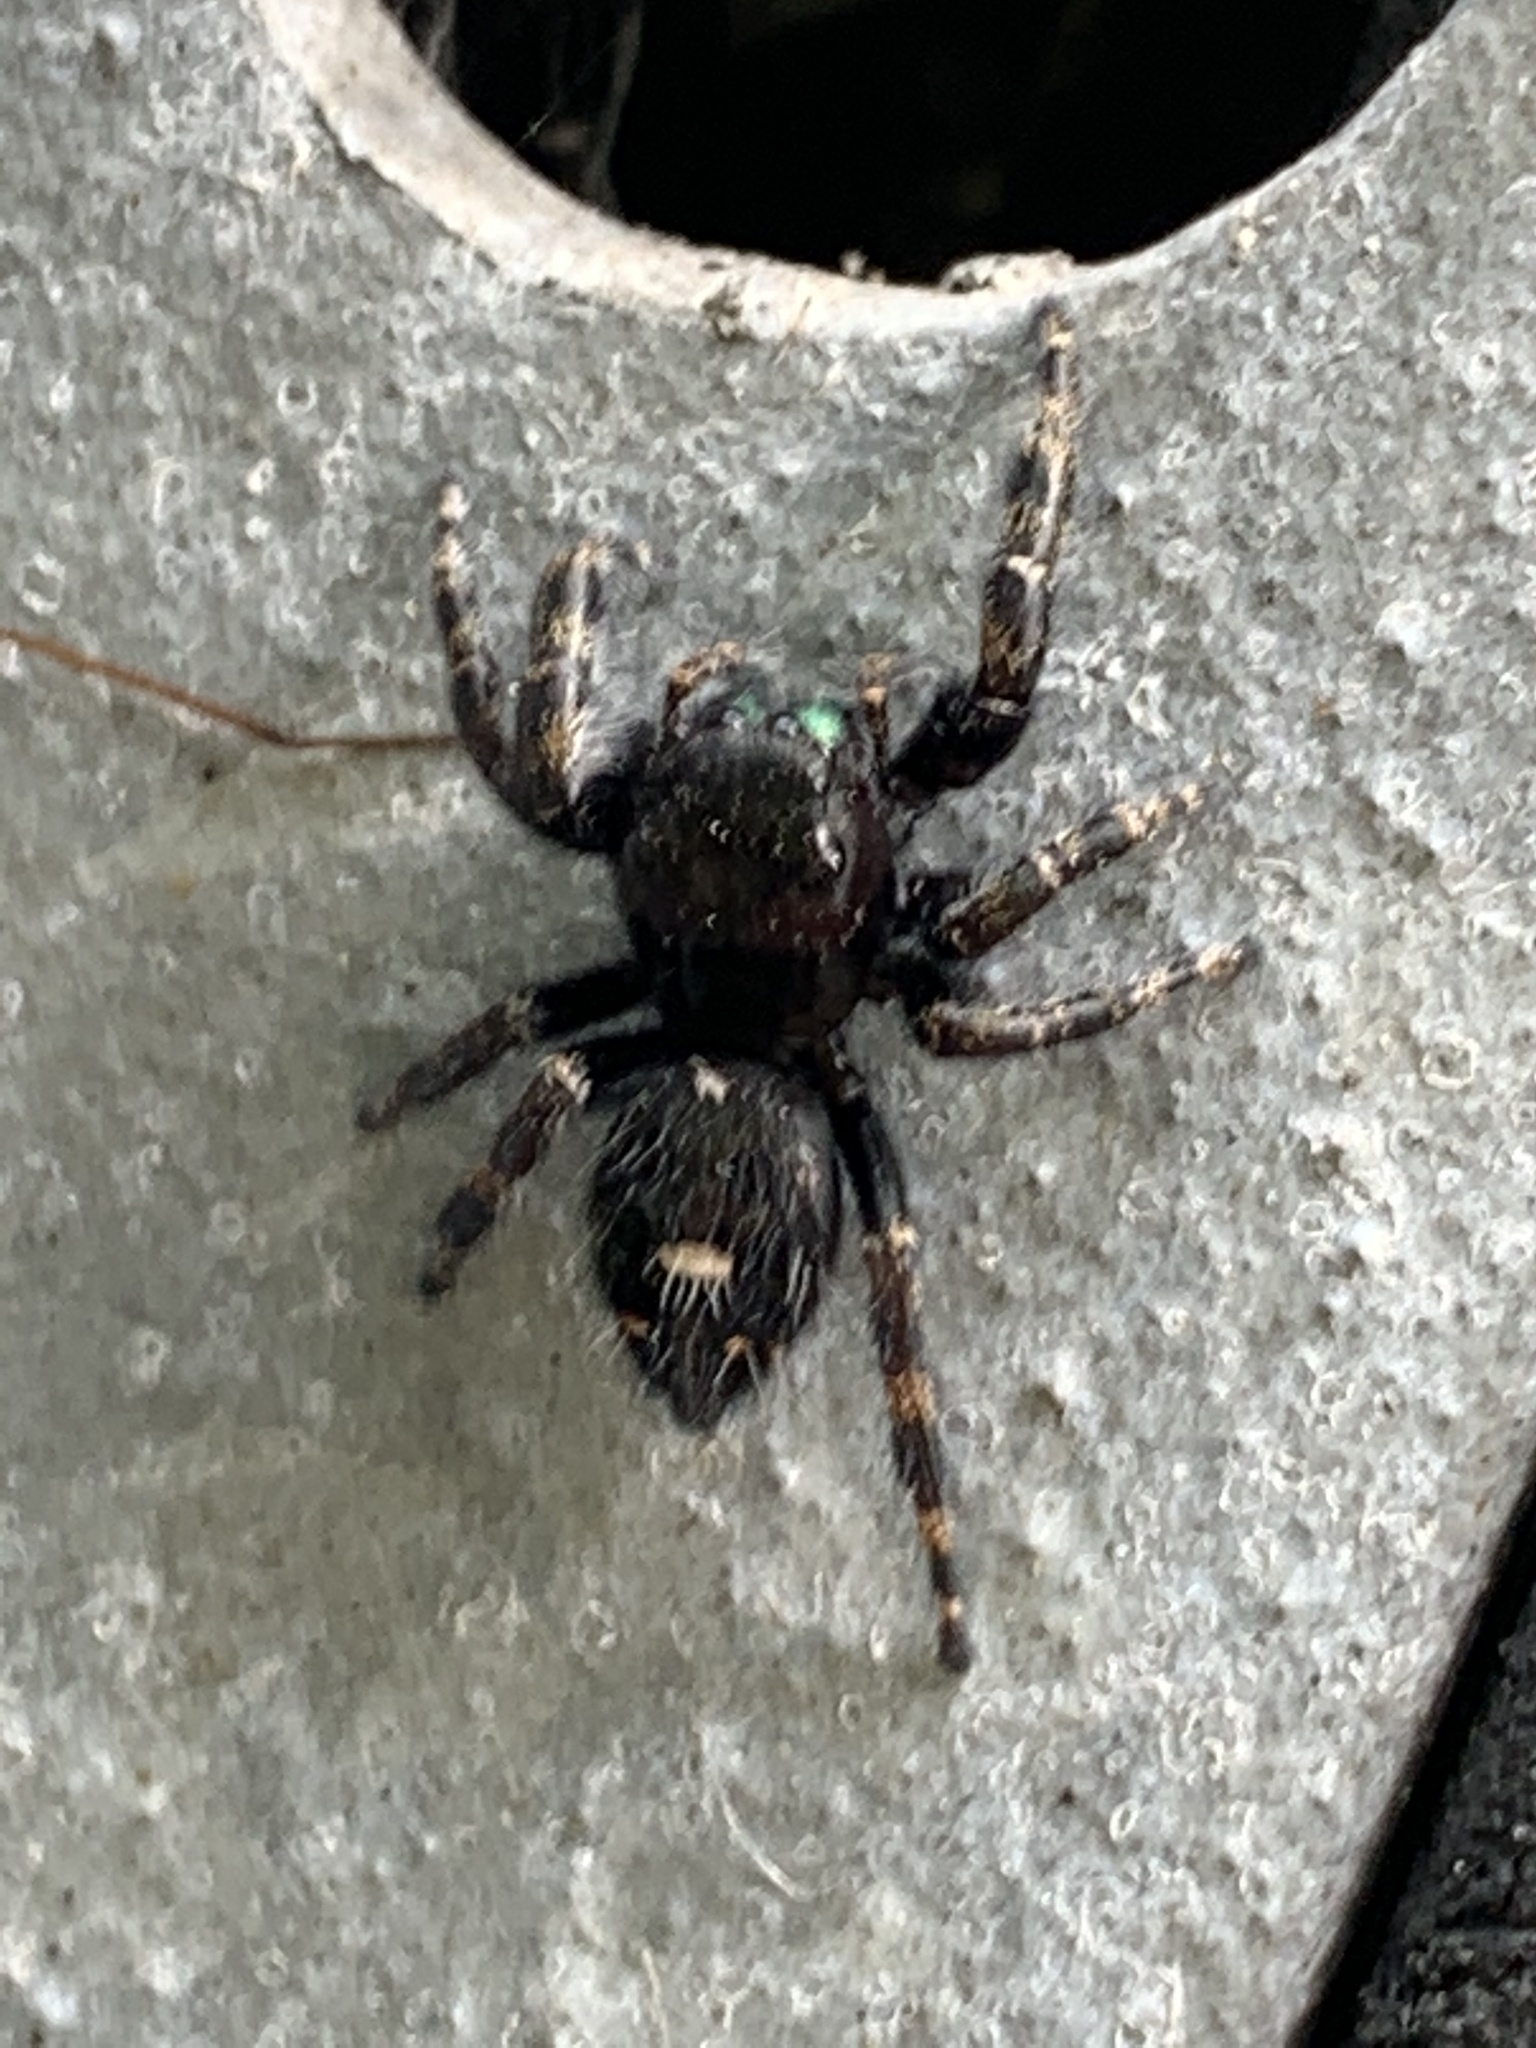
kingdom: Animalia
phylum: Arthropoda
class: Arachnida
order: Araneae
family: Salticidae
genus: Phidippus
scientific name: Phidippus audax
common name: Bold jumper
